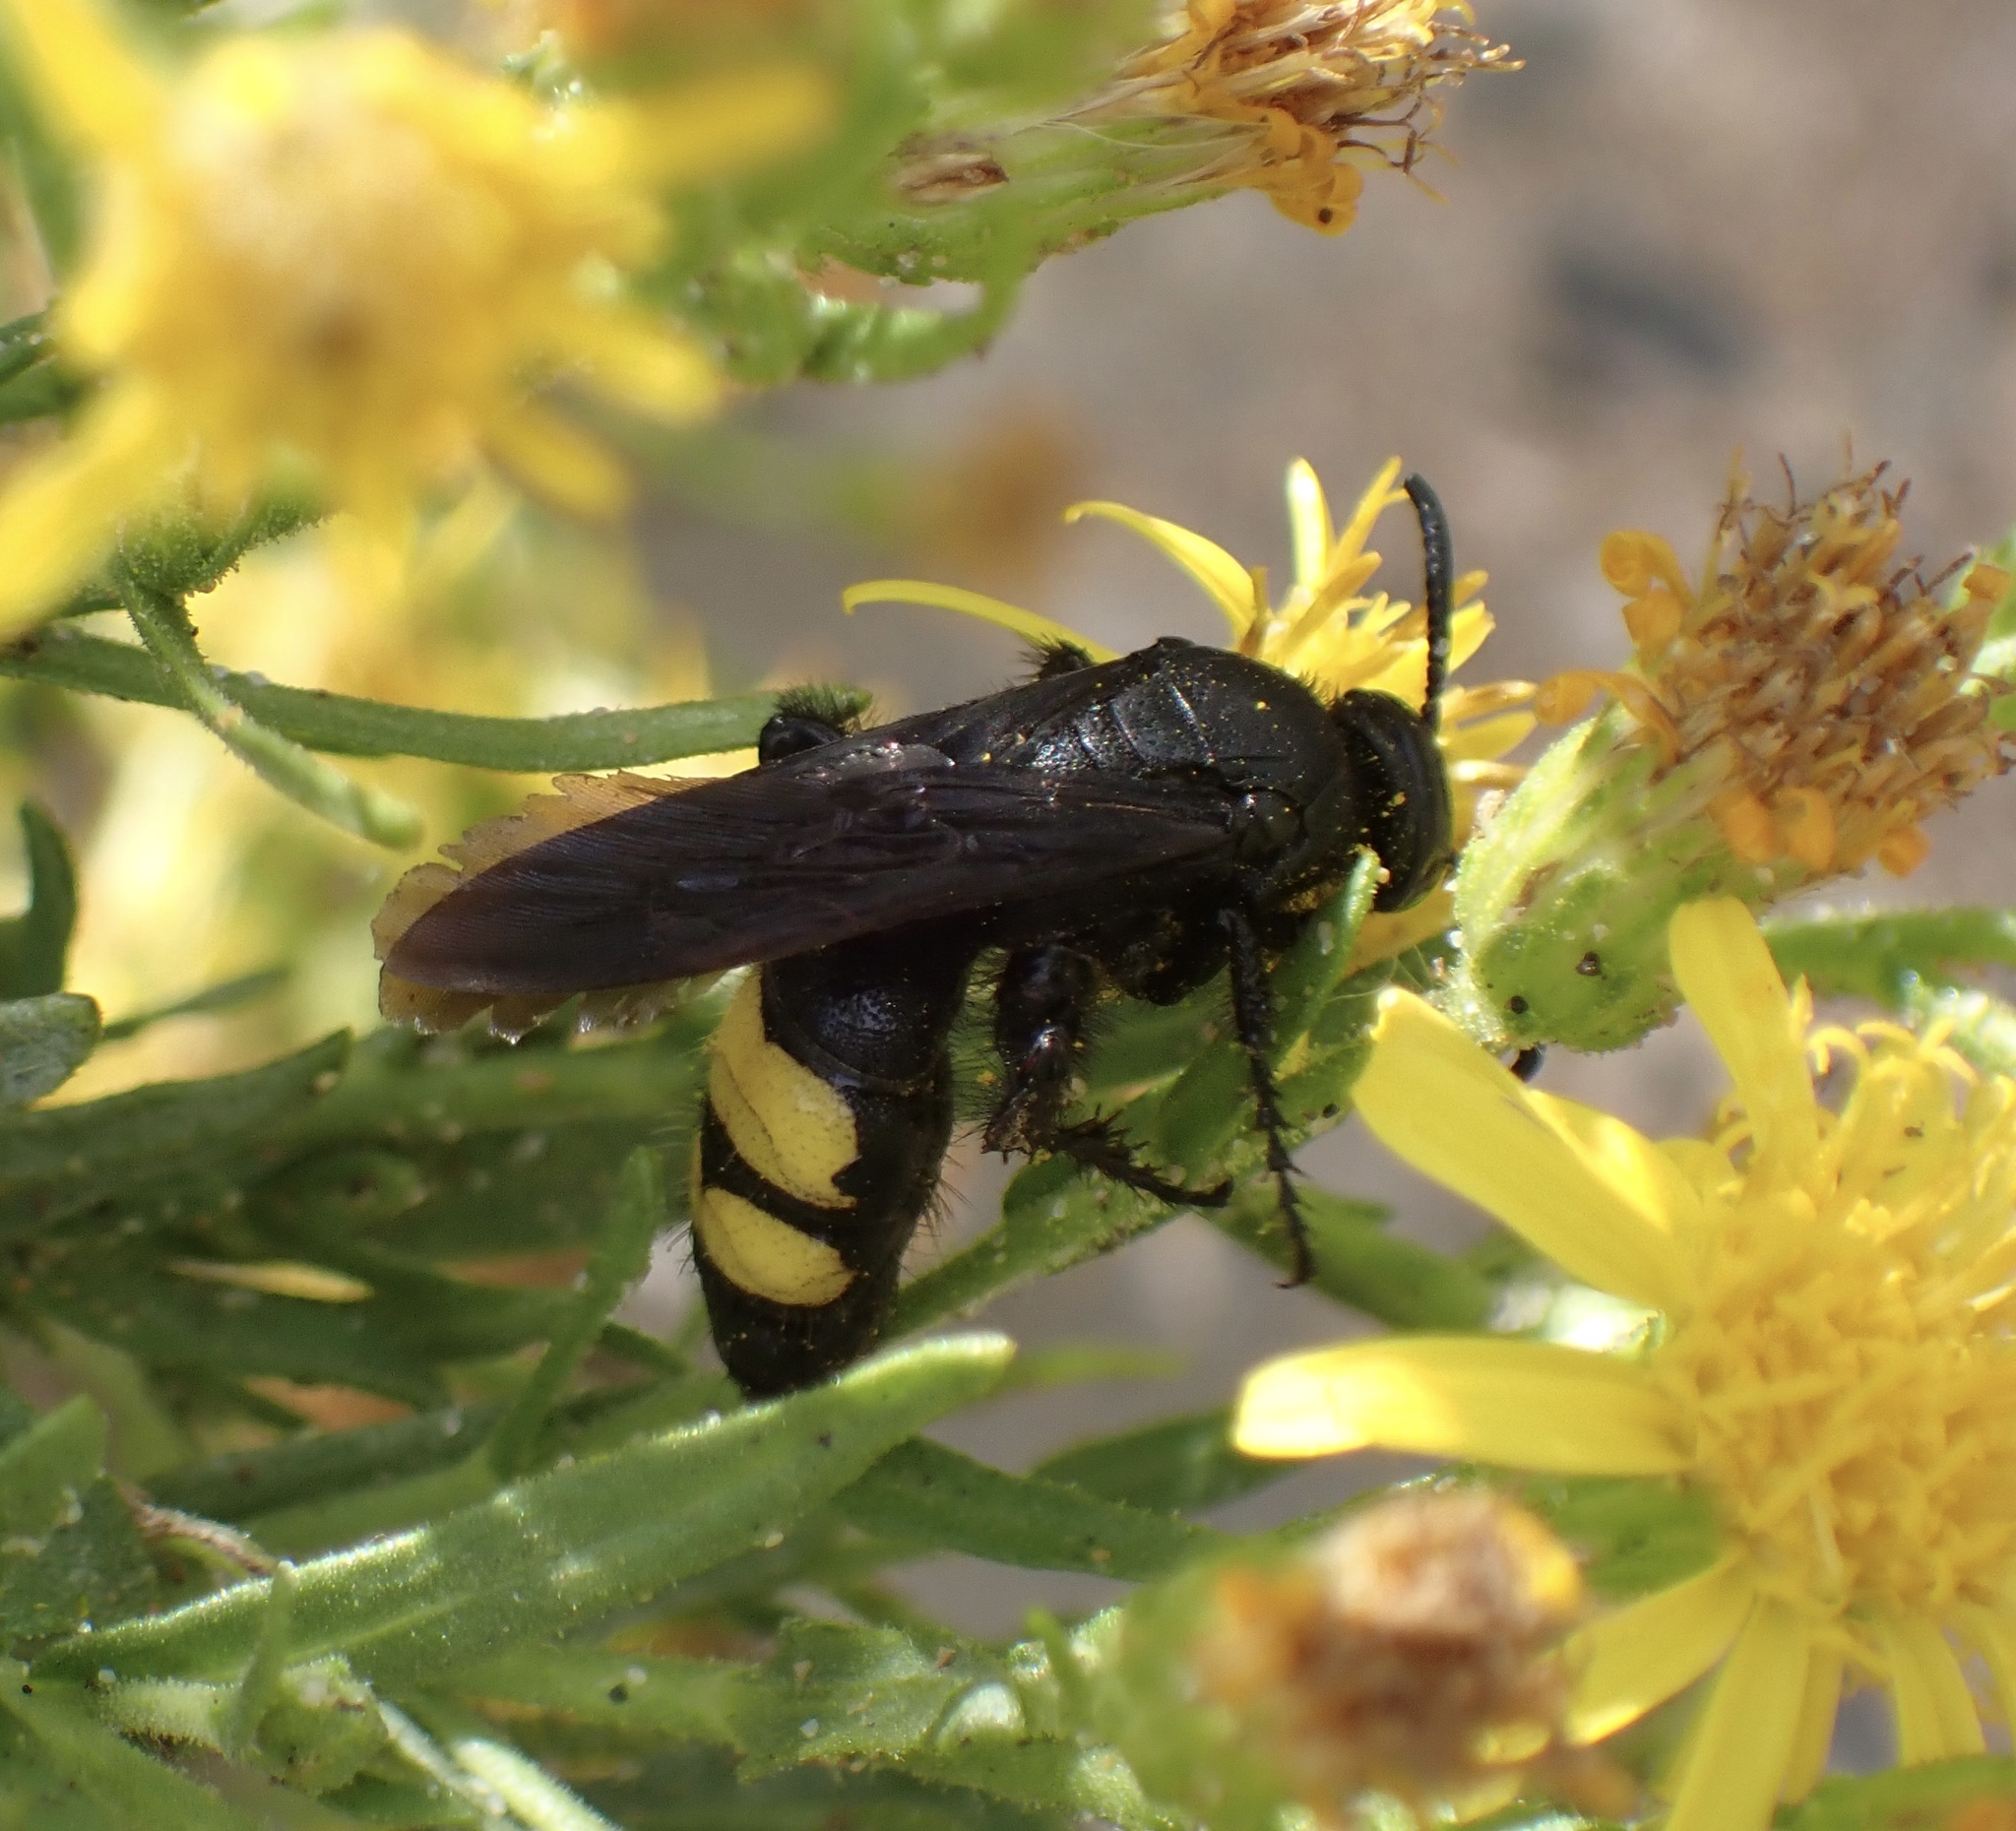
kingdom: Animalia
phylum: Arthropoda
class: Insecta
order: Hymenoptera
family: Scoliidae
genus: Scolia
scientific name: Scolia hirta
